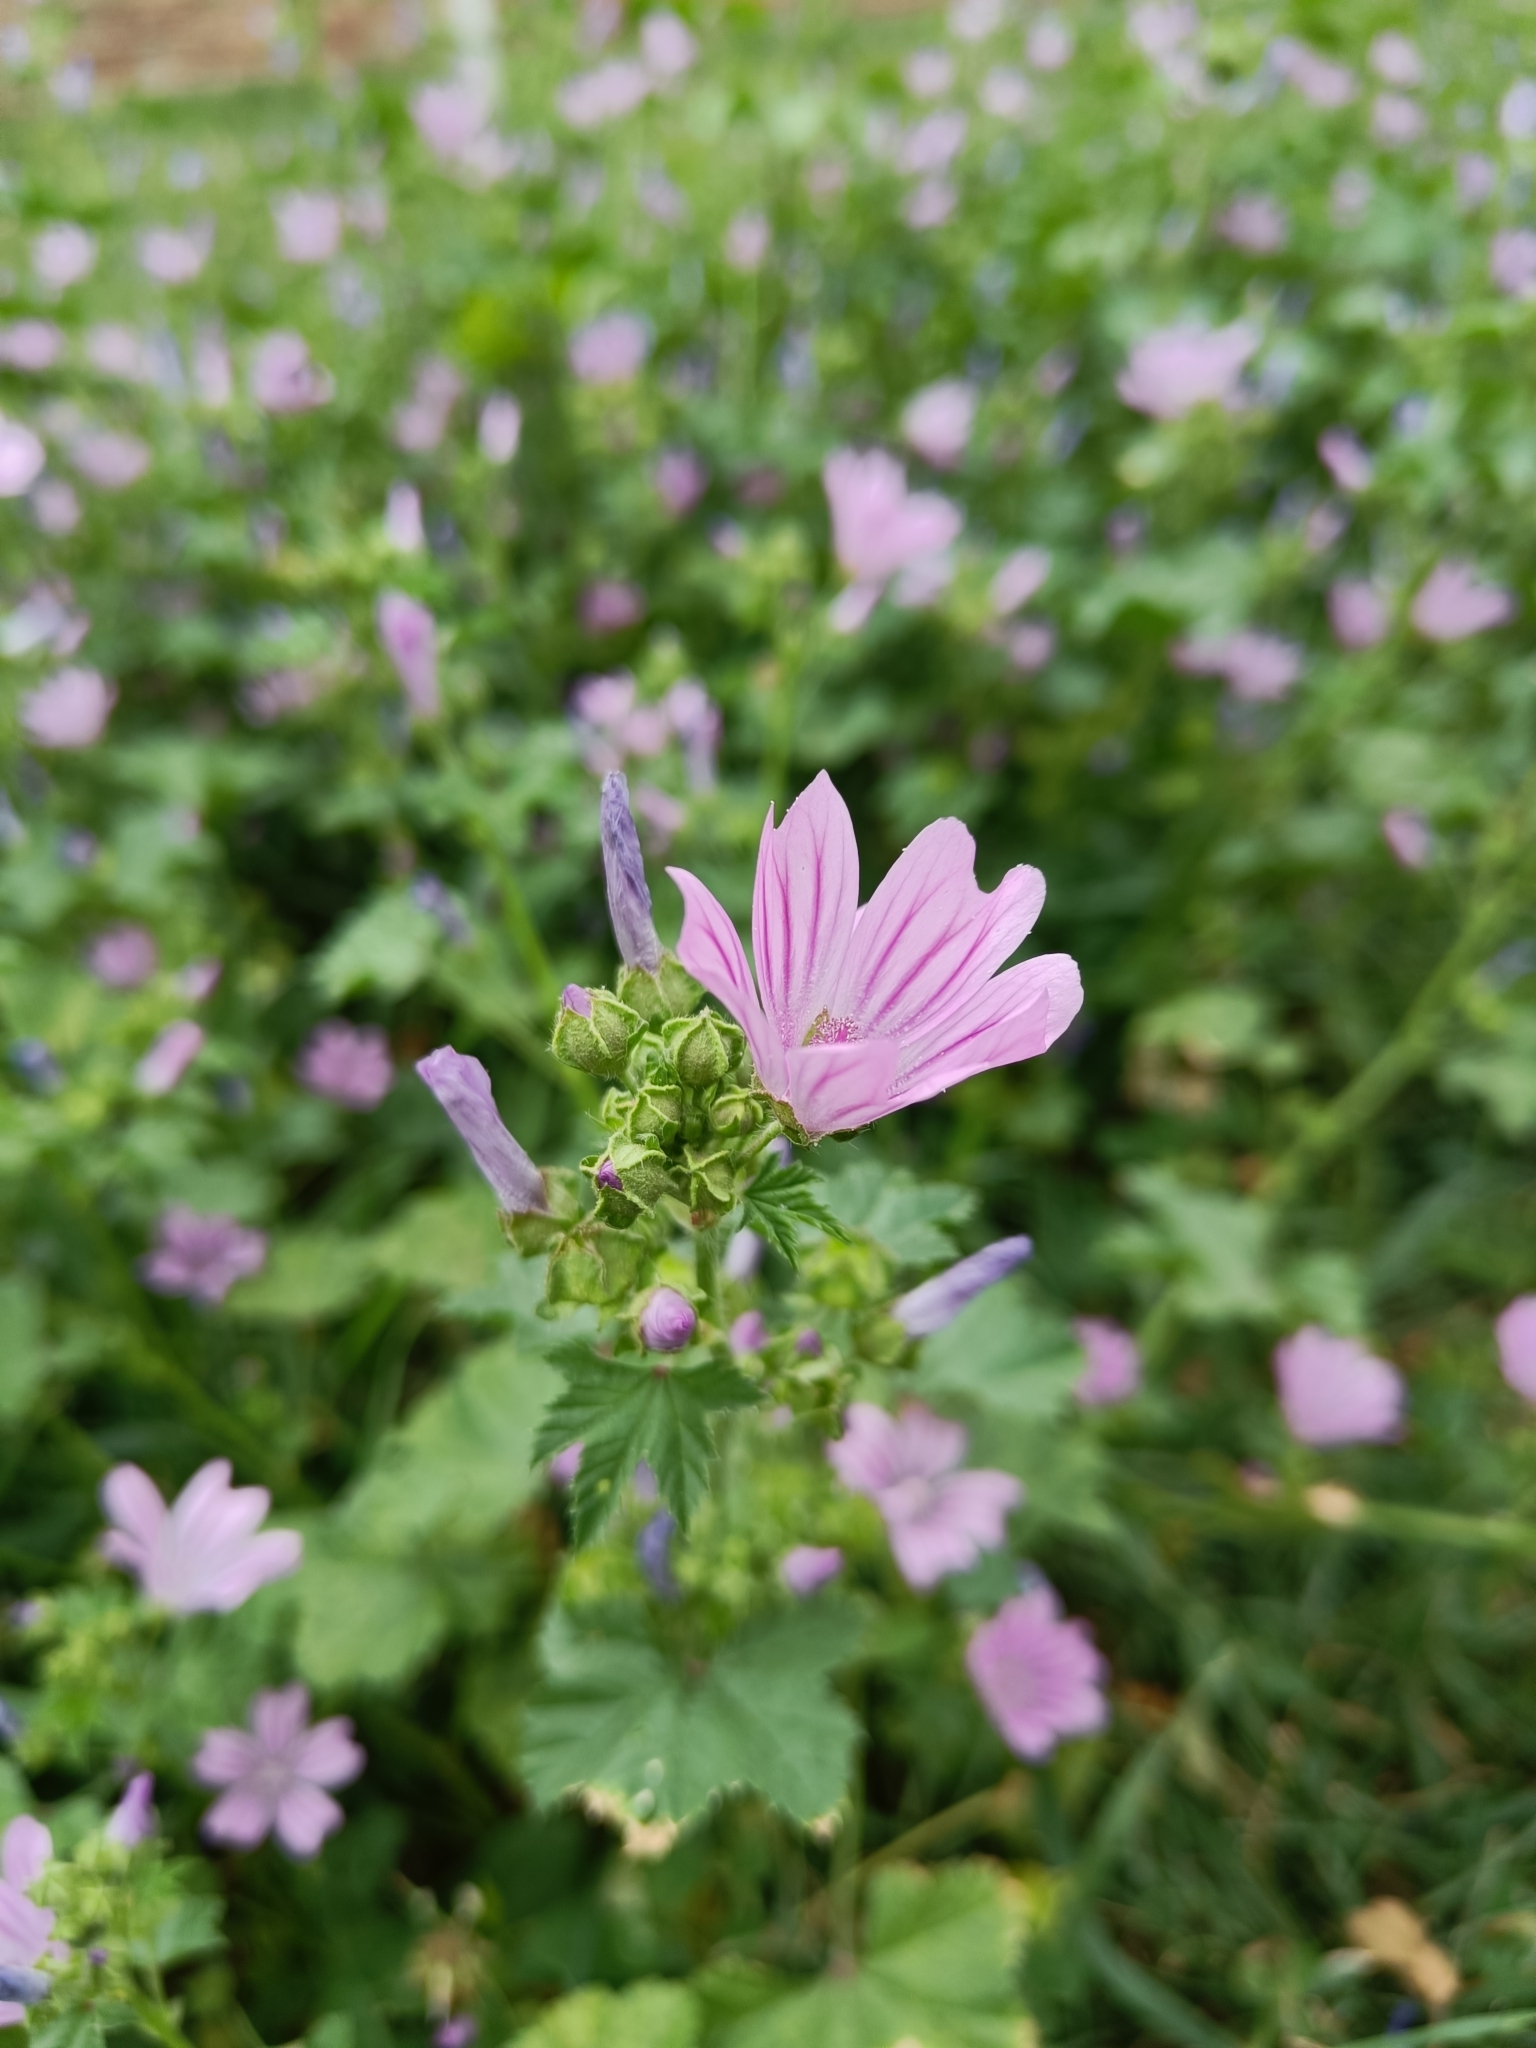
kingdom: Plantae
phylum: Tracheophyta
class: Magnoliopsida
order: Malvales
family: Malvaceae
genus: Malva
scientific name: Malva sylvestris
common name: Common mallow
